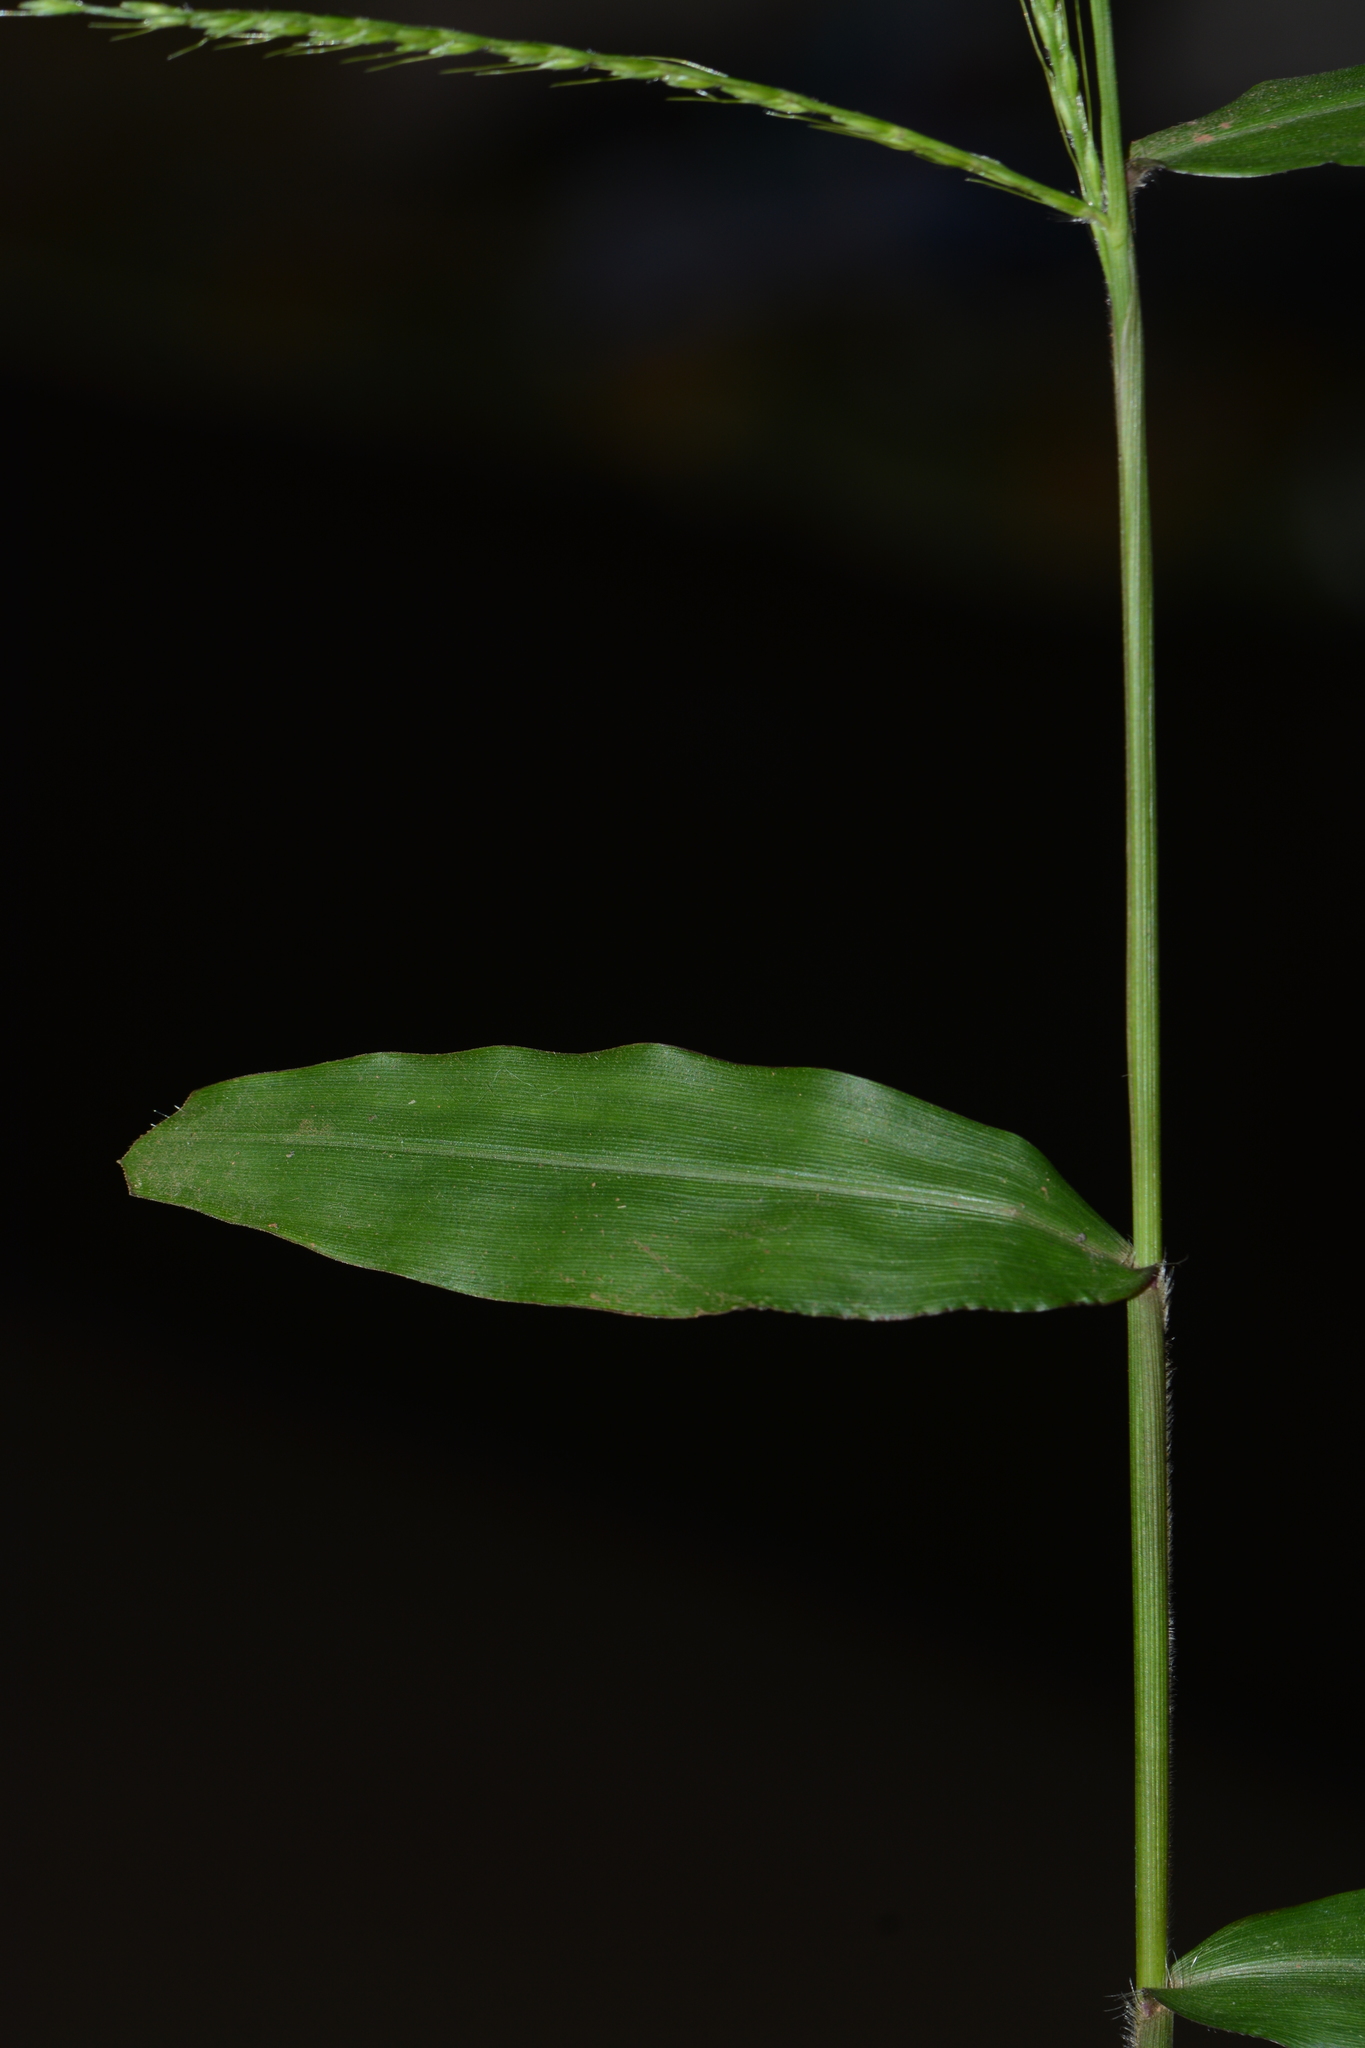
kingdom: Plantae
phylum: Tracheophyta
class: Liliopsida
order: Poales
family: Poaceae
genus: Oplismenus
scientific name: Oplismenus compositus
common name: Running mountain grass
